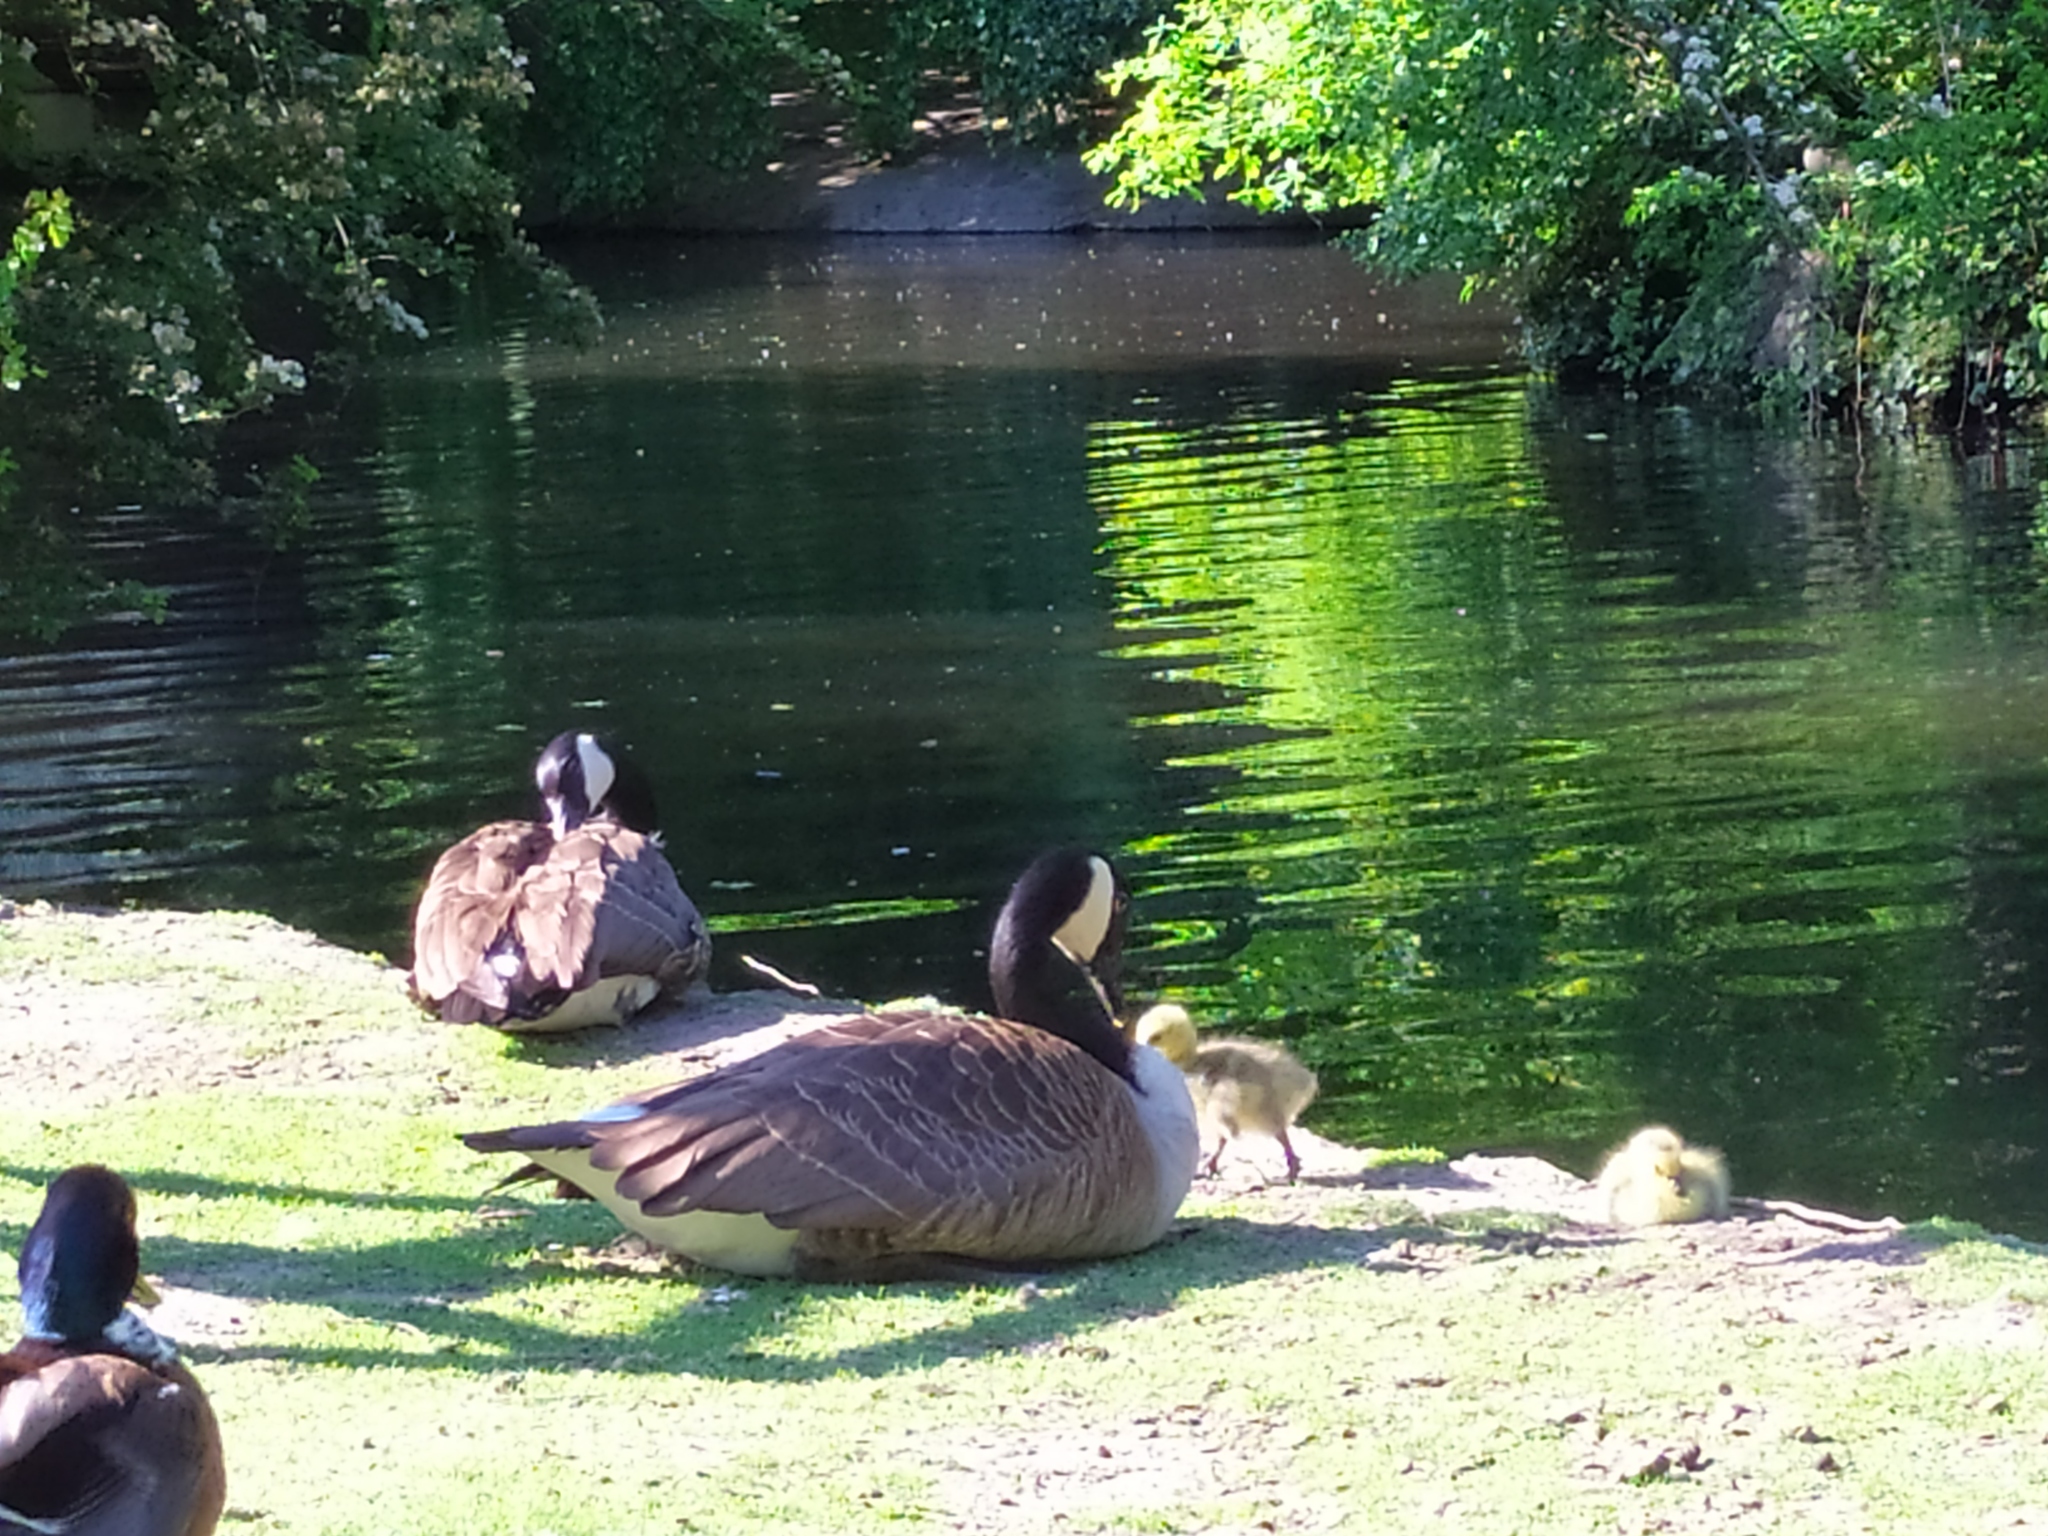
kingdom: Animalia
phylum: Chordata
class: Aves
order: Anseriformes
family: Anatidae
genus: Branta
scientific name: Branta canadensis
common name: Canada goose
